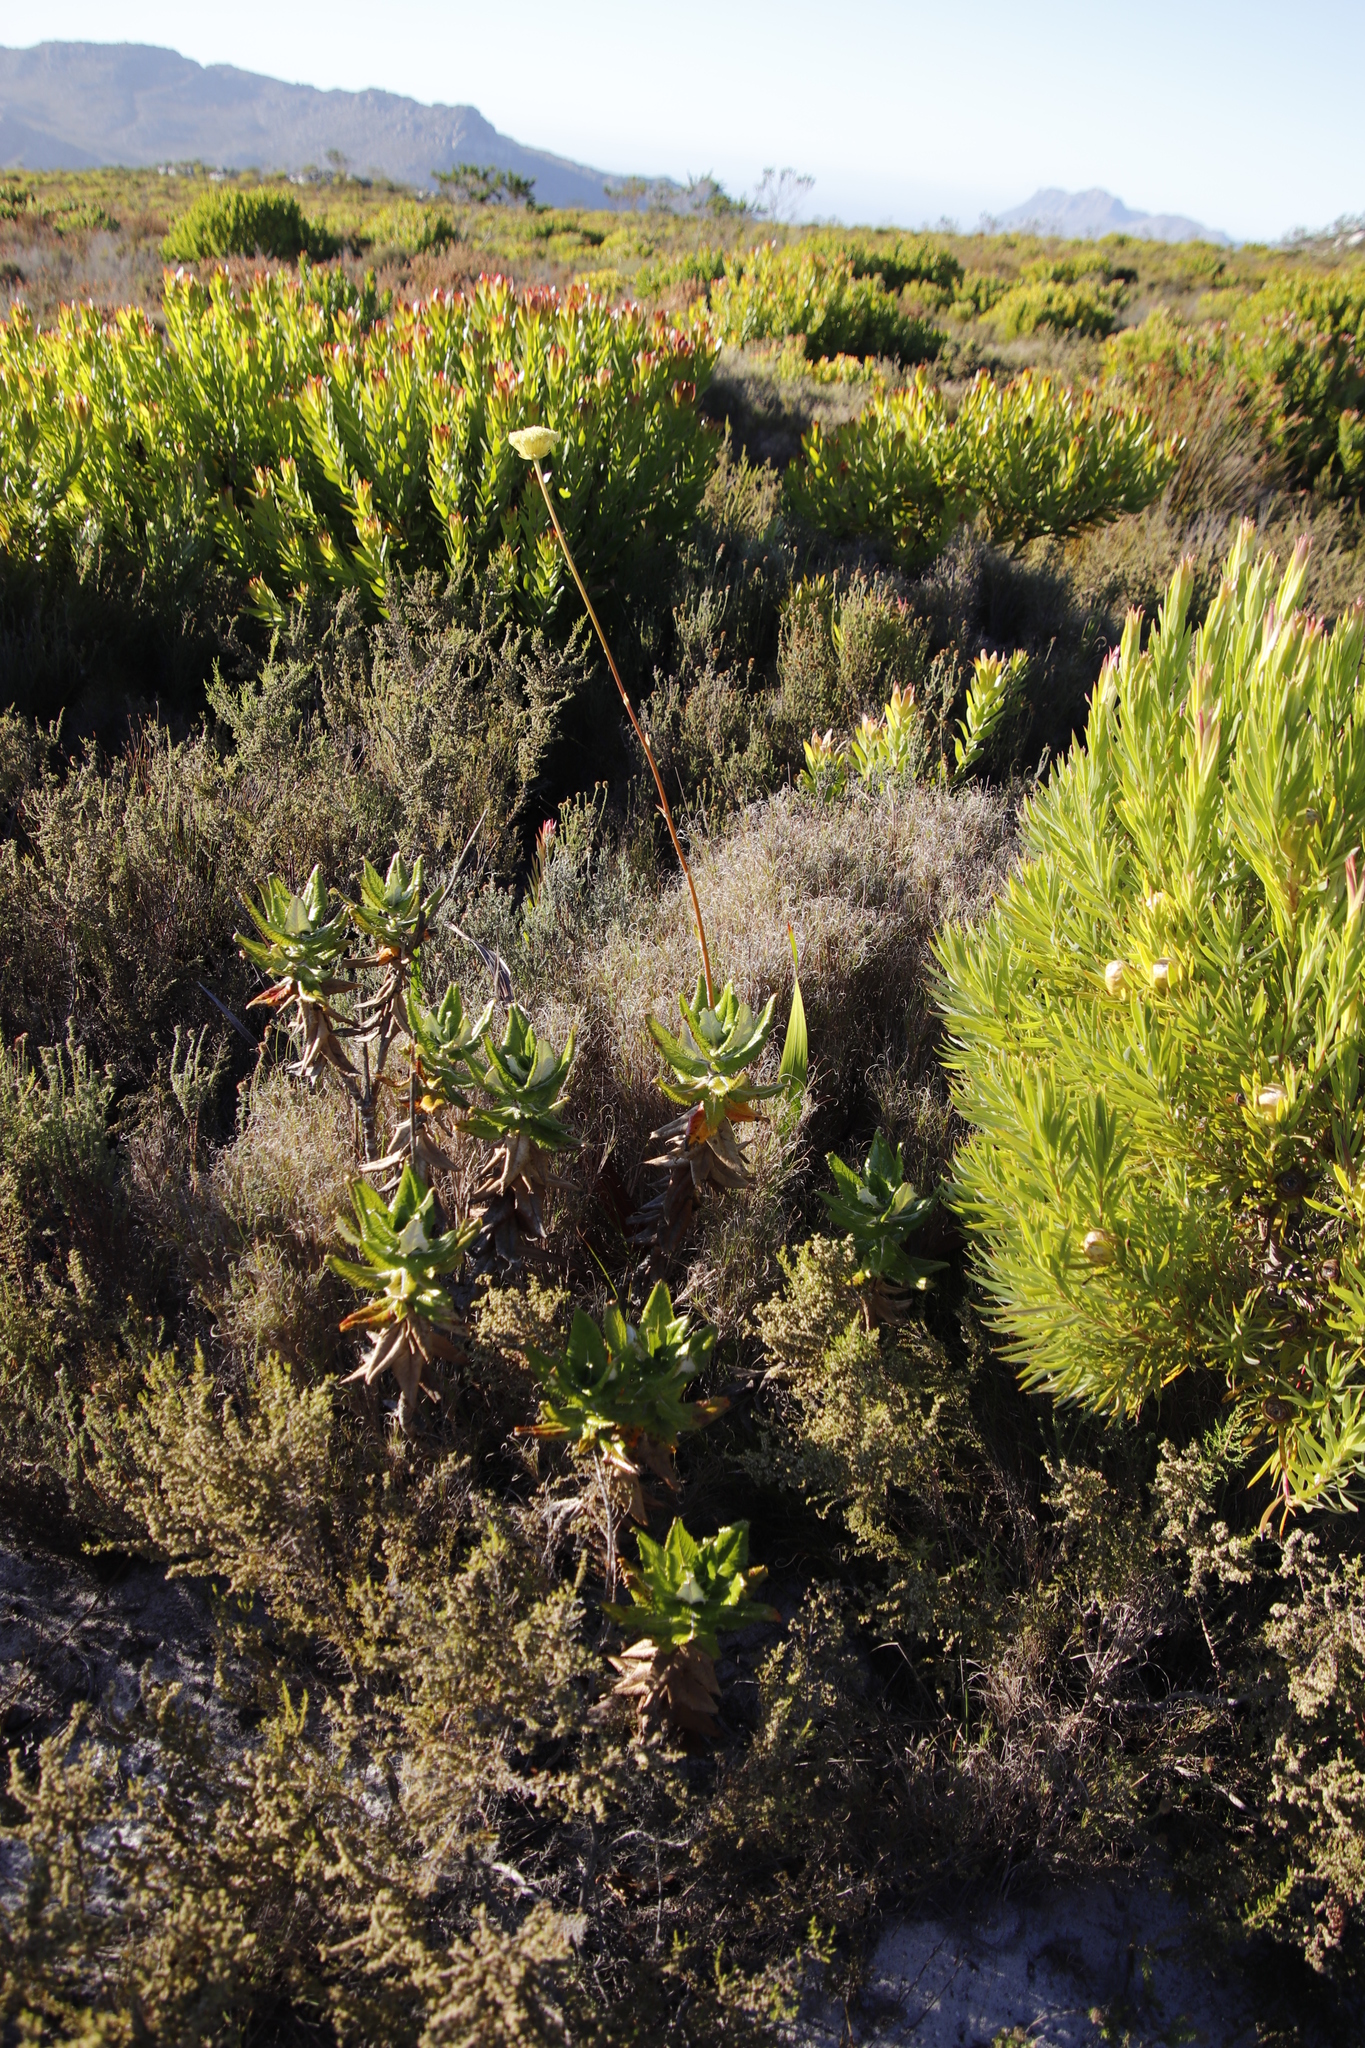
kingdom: Plantae
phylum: Tracheophyta
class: Magnoliopsida
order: Apiales
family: Apiaceae
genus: Hermas
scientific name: Hermas villosa
